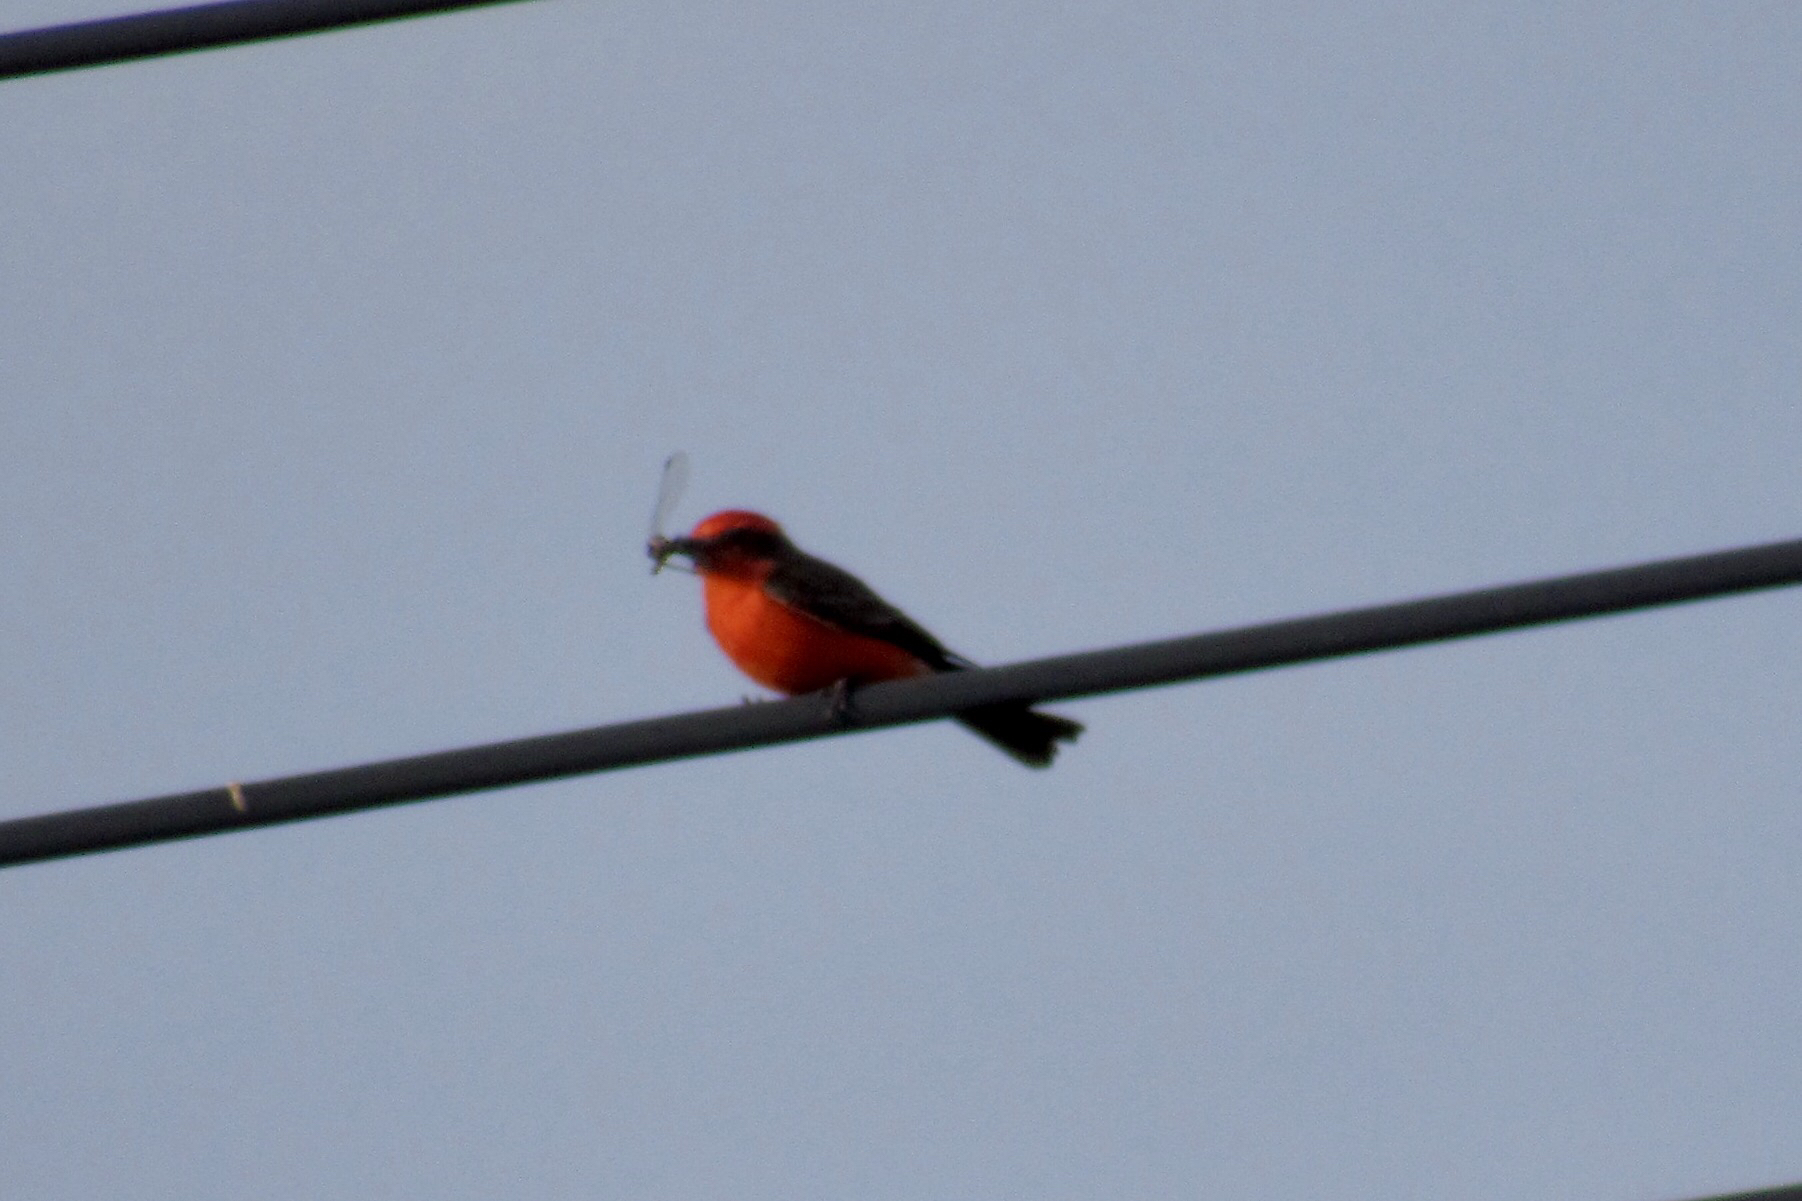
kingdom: Animalia
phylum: Chordata
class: Aves
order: Passeriformes
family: Tyrannidae
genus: Pyrocephalus
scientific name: Pyrocephalus rubinus
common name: Vermilion flycatcher
